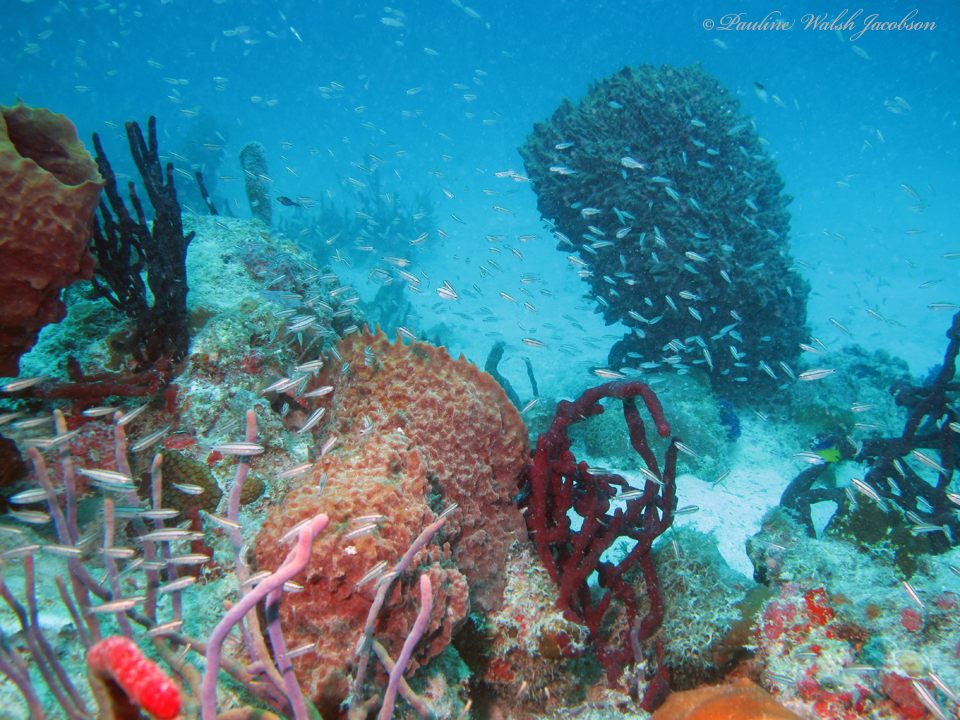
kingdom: Animalia
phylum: Porifera
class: Demospongiae
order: Haplosclerida
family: Petrosiidae
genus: Xestospongia
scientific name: Xestospongia muta
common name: Giant barrel sponge
